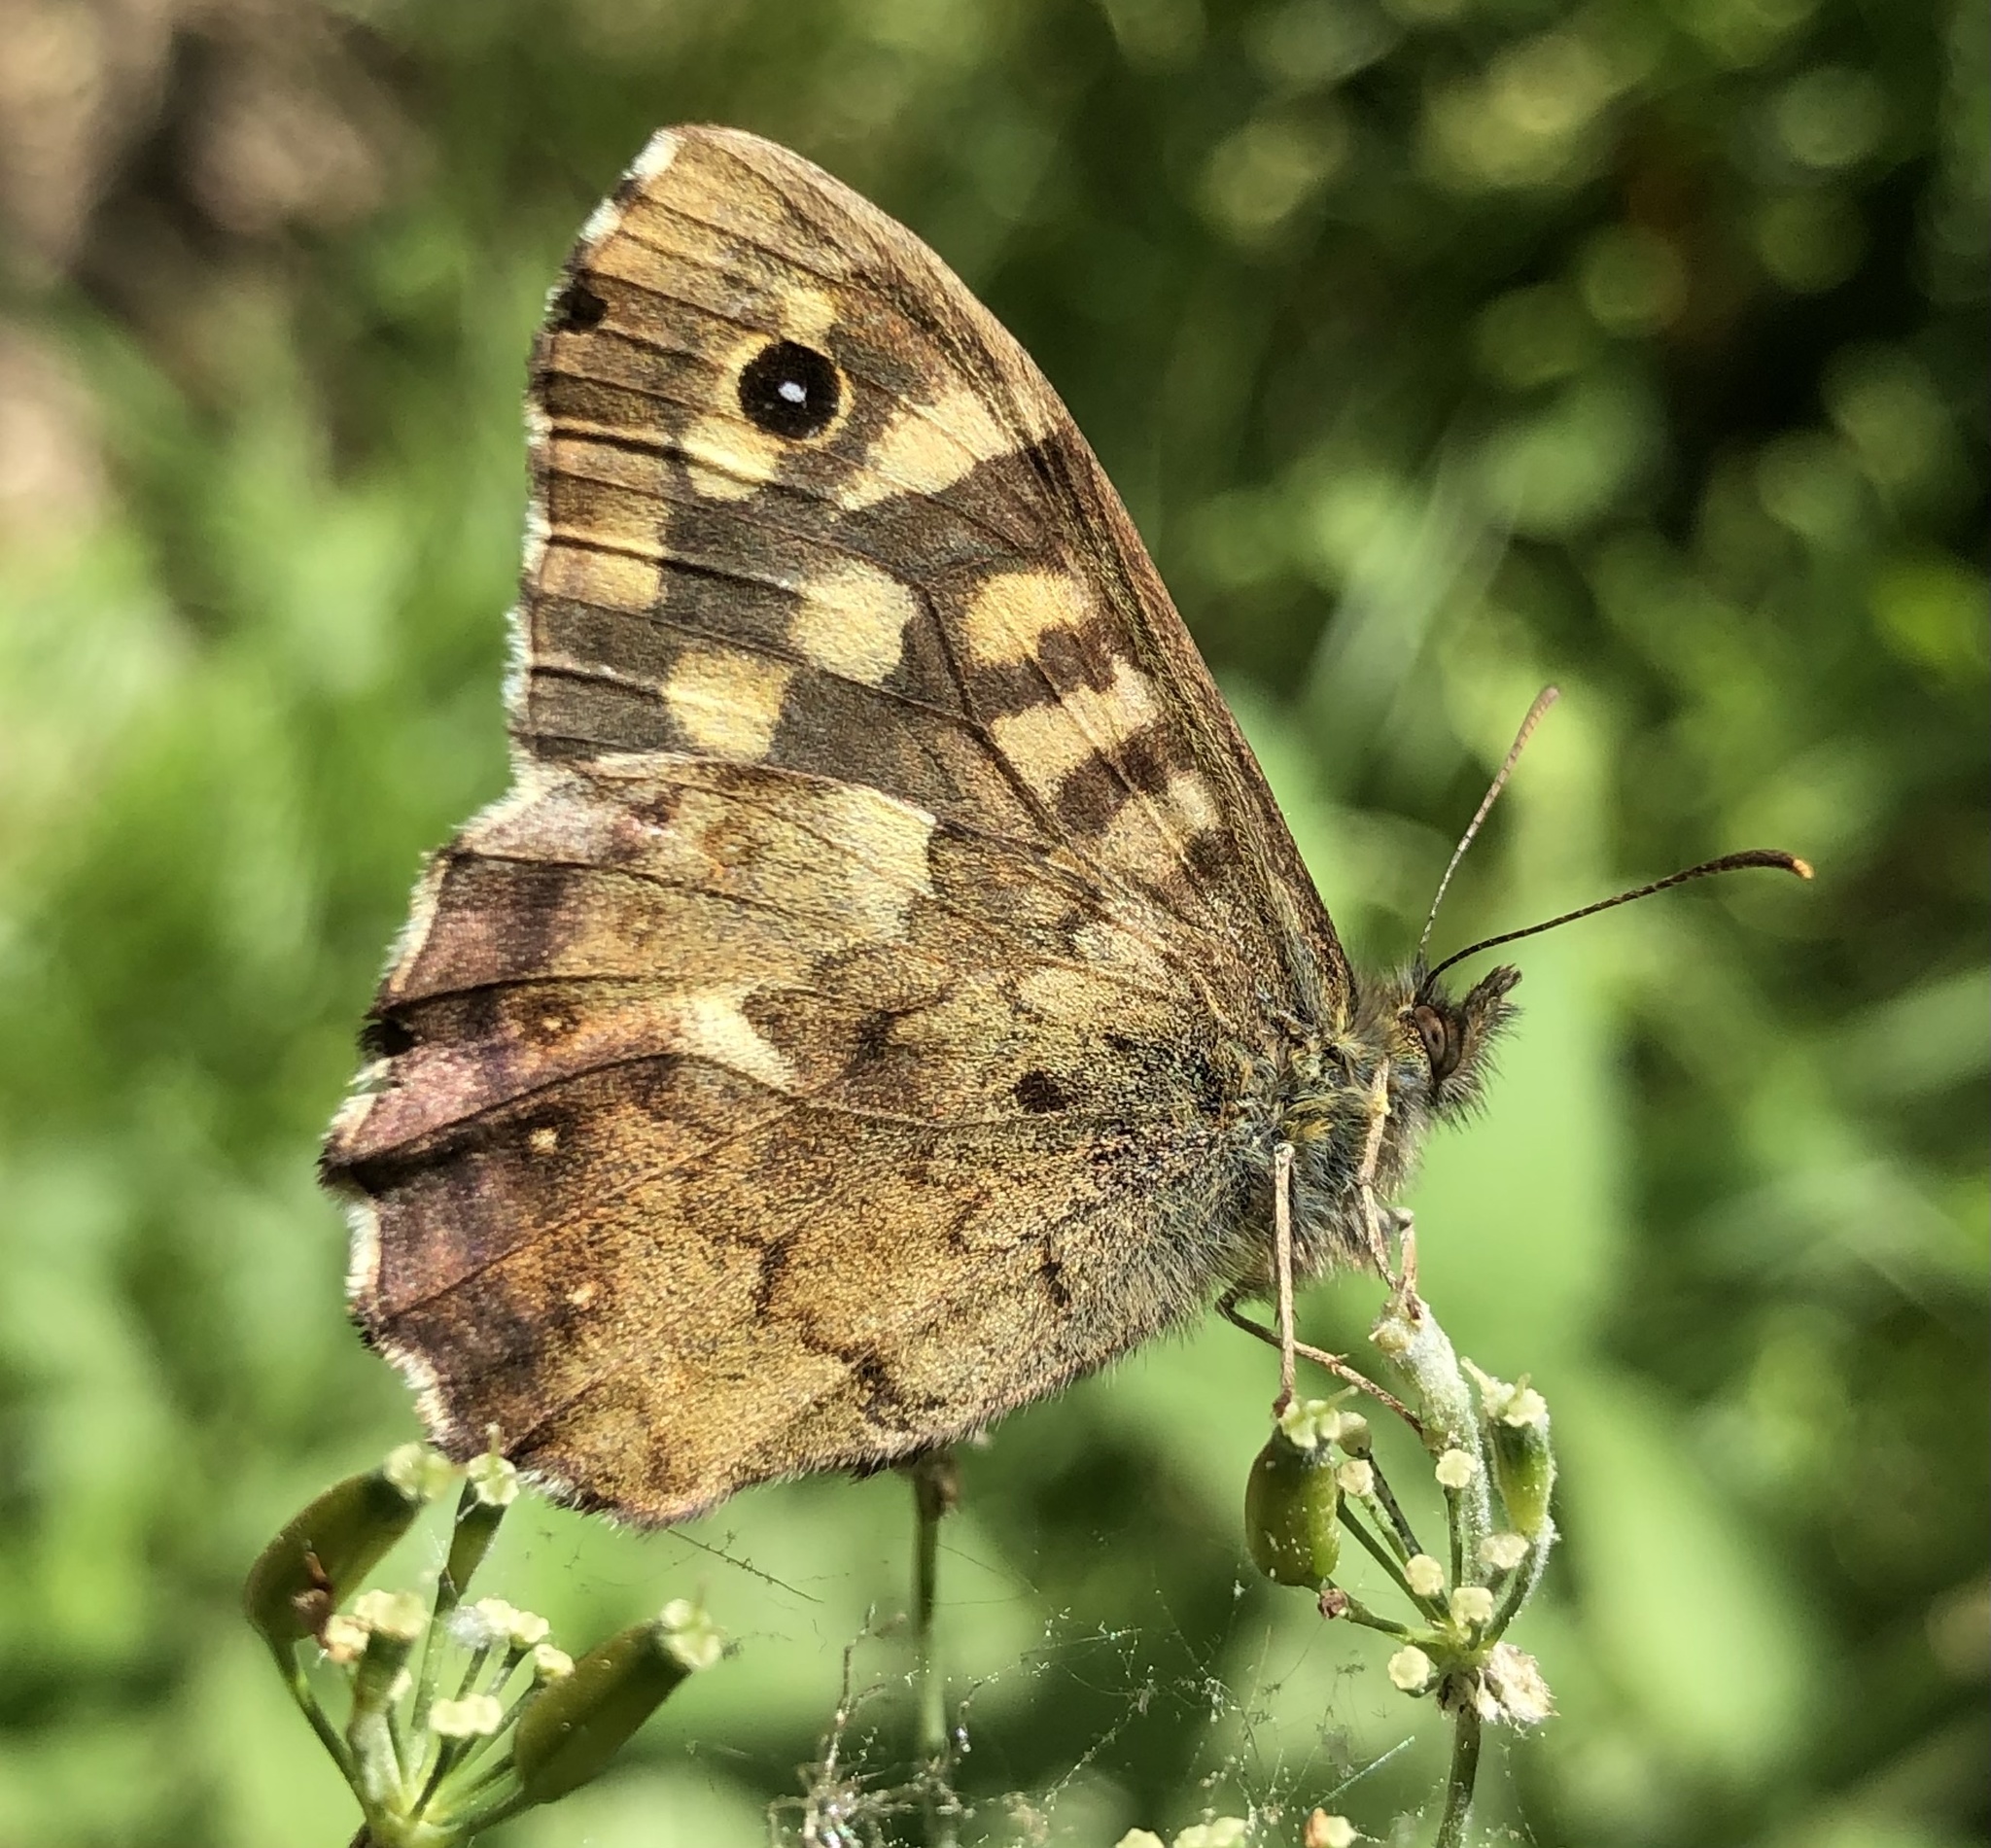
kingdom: Animalia
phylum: Arthropoda
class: Insecta
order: Lepidoptera
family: Nymphalidae
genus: Pararge
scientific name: Pararge aegeria
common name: Speckled wood
